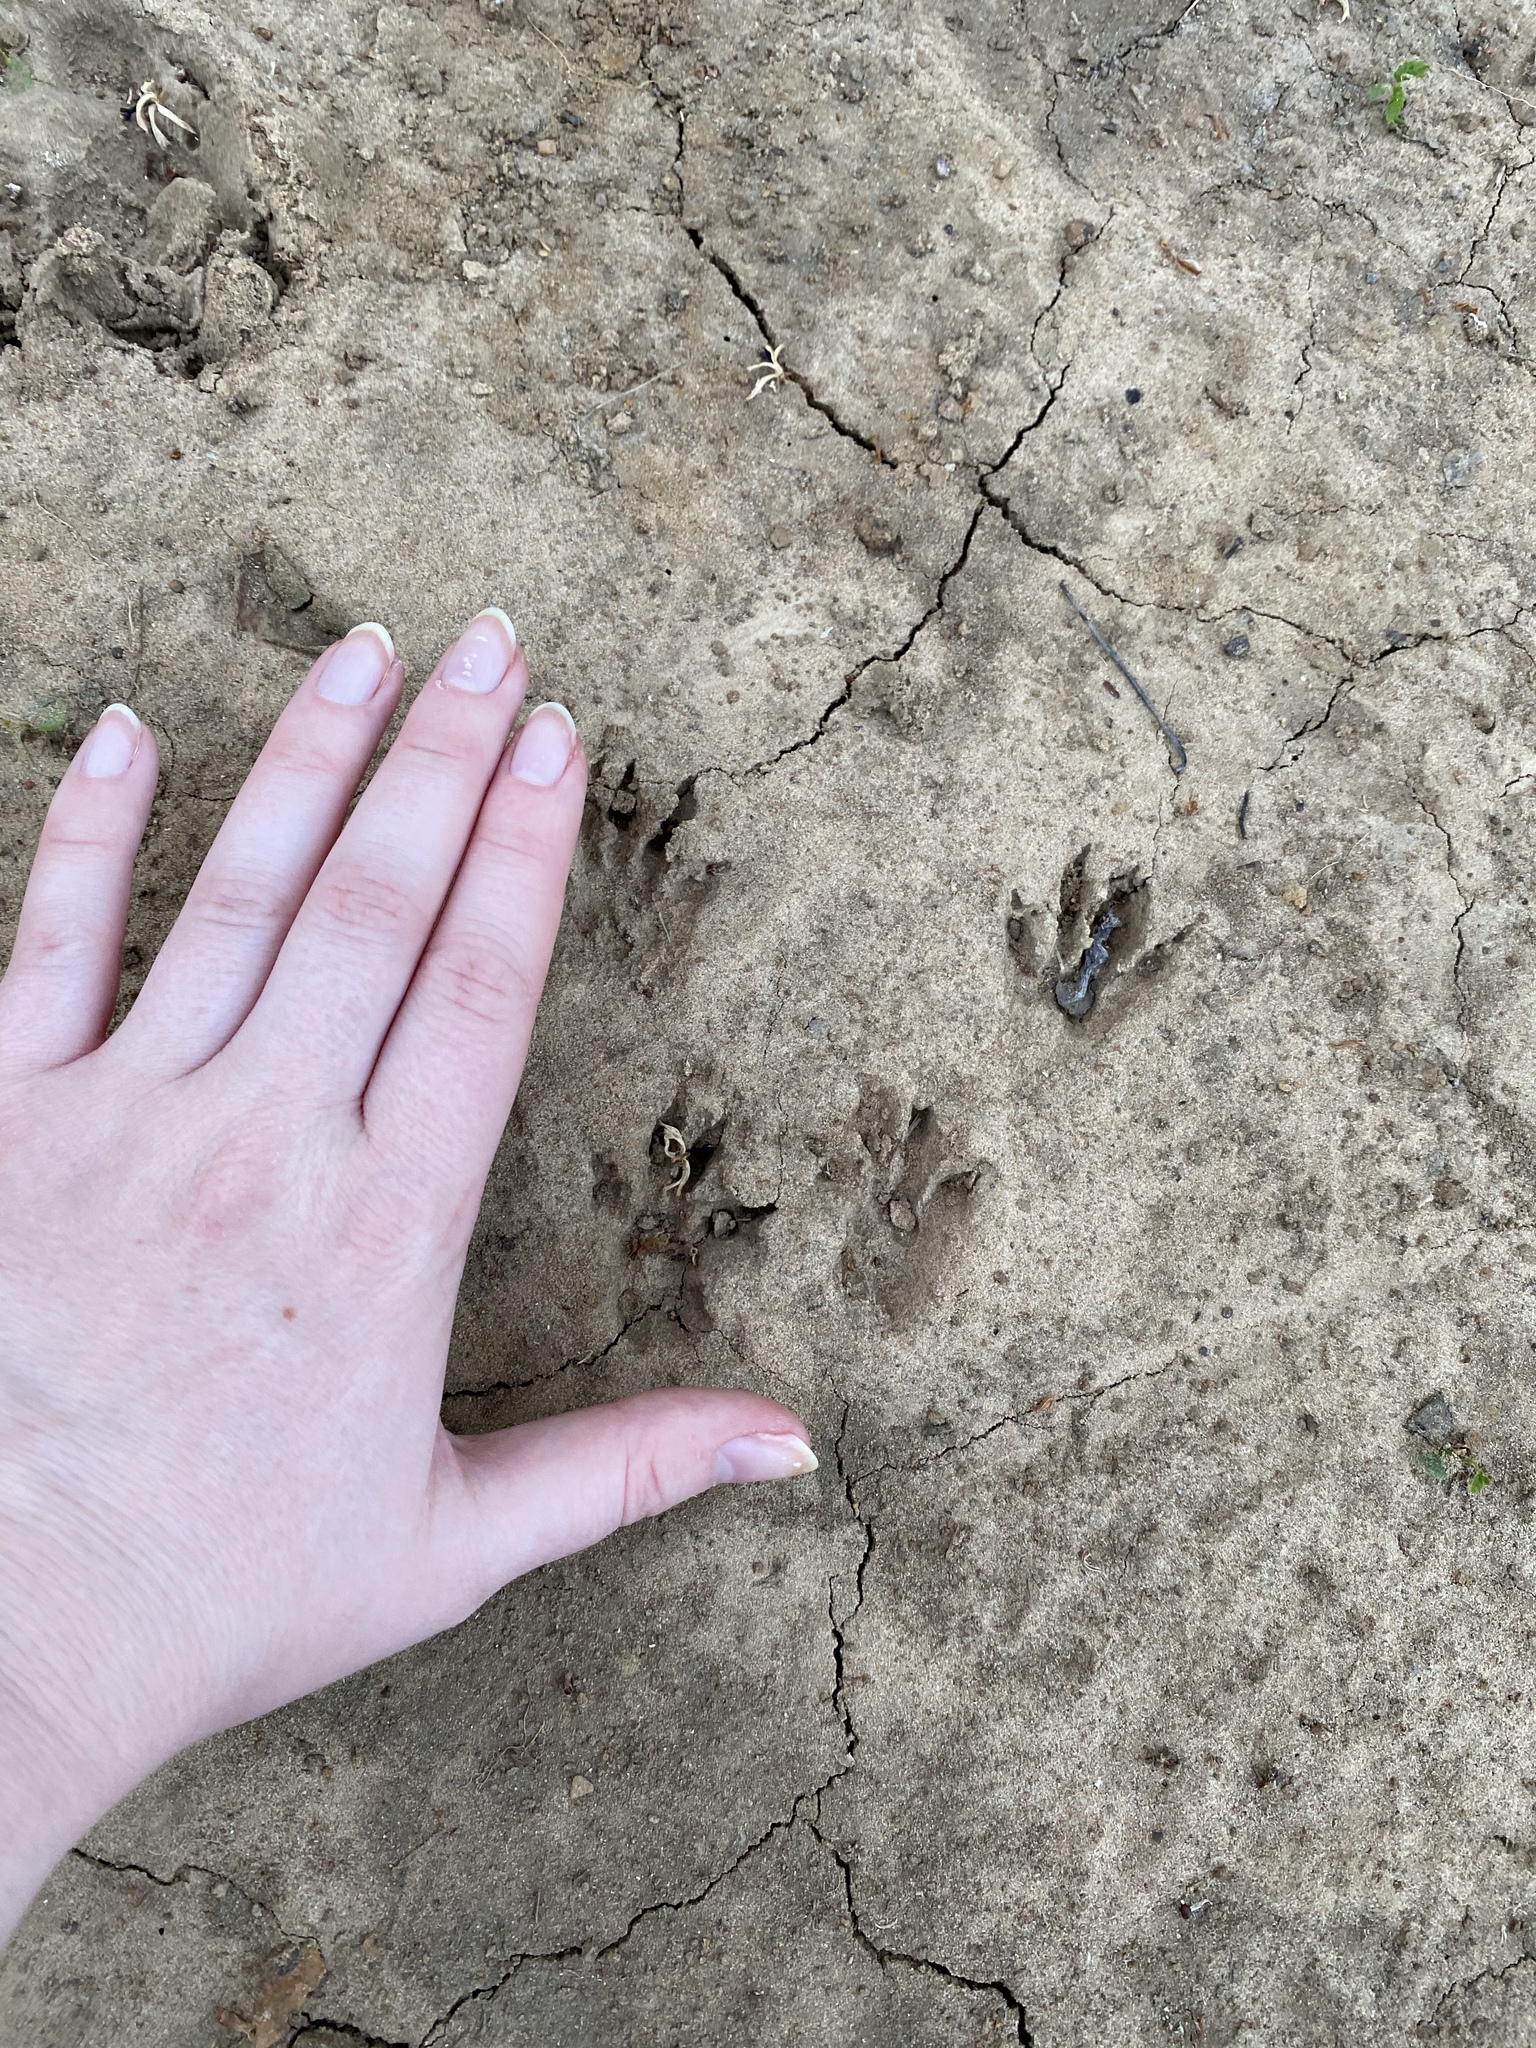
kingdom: Animalia
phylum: Chordata
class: Mammalia
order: Rodentia
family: Sciuridae
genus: Sciurus
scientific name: Sciurus niger
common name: Fox squirrel
